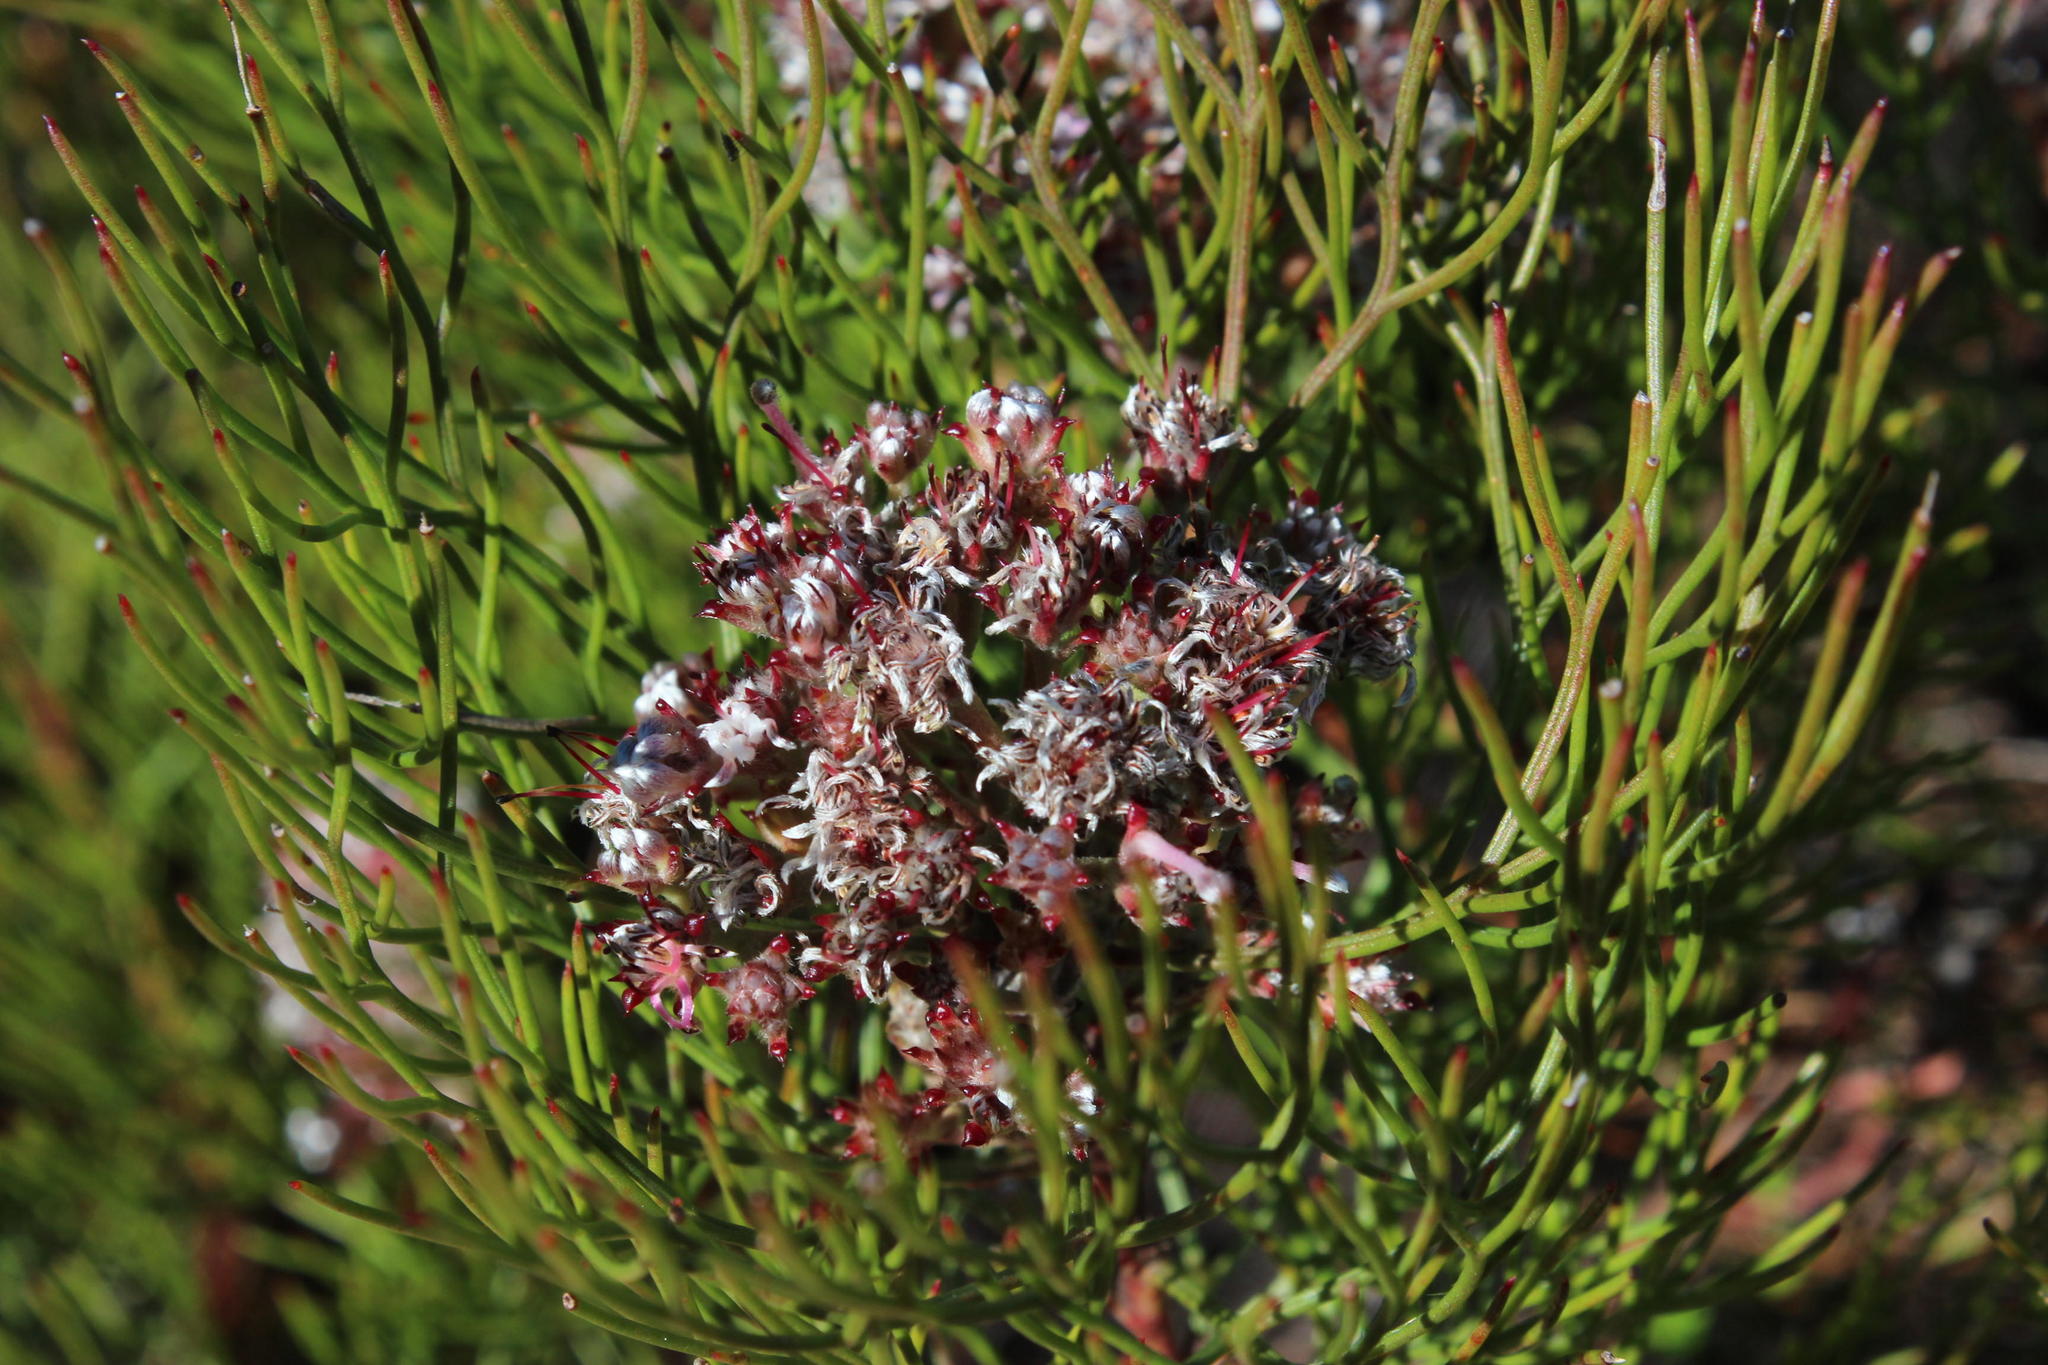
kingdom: Plantae
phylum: Tracheophyta
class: Magnoliopsida
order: Proteales
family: Proteaceae
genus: Serruria
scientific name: Serruria fasciflora
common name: Common pin spiderhead
